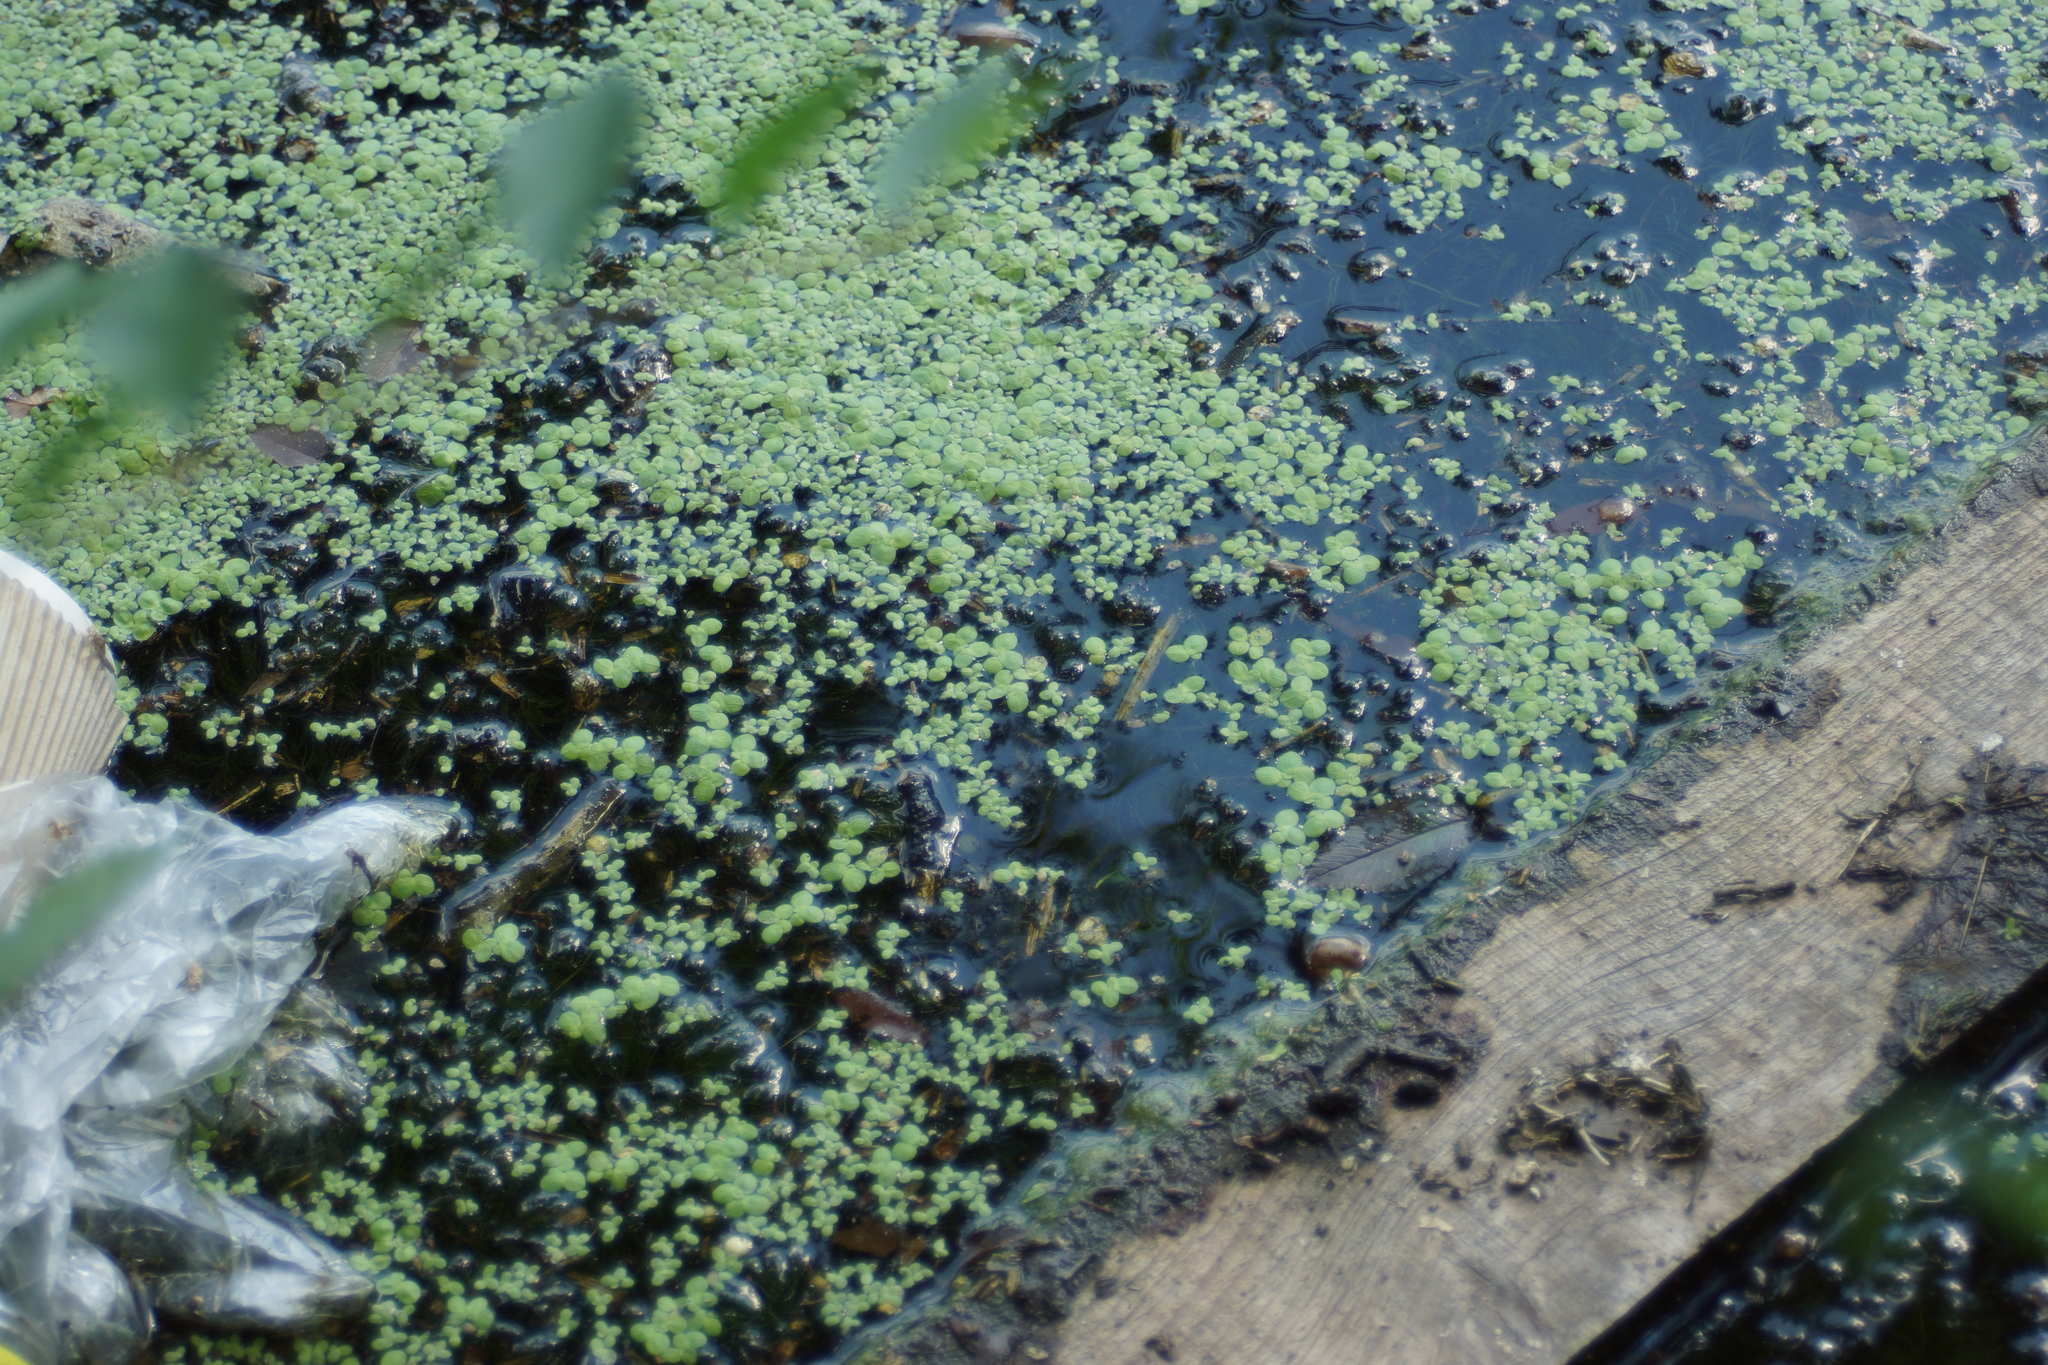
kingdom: Plantae
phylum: Tracheophyta
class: Liliopsida
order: Alismatales
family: Araceae
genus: Lemna
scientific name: Lemna minor
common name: Common duckweed
